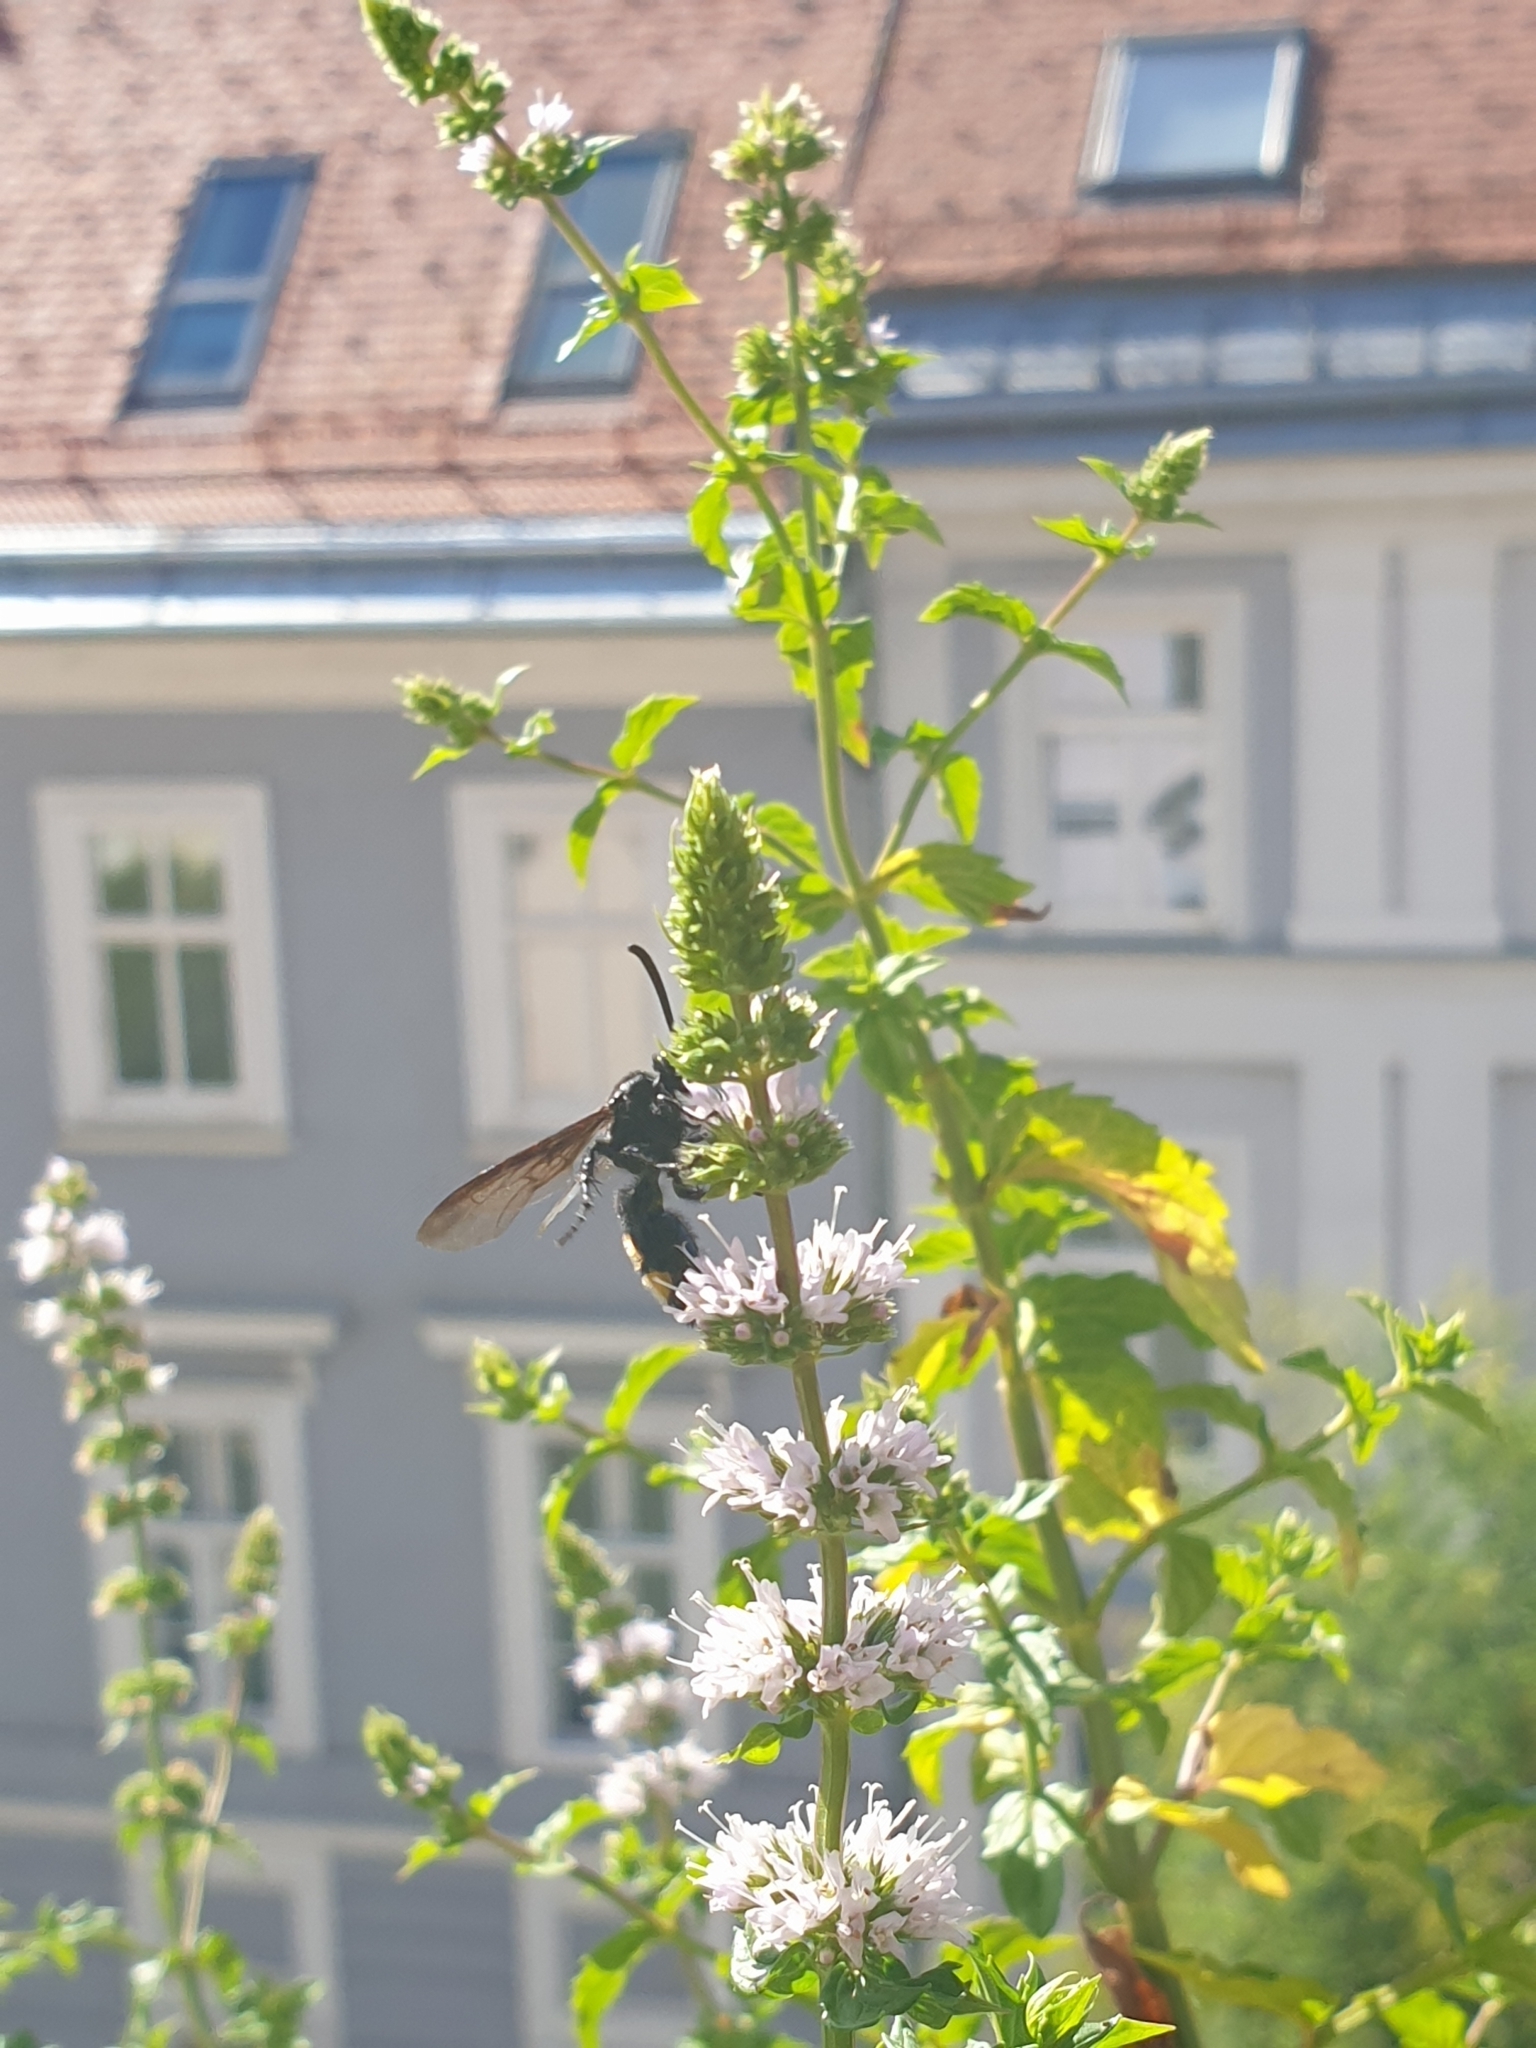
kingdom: Animalia
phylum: Arthropoda
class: Insecta
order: Hymenoptera
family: Scoliidae
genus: Scolia
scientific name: Scolia hirta
